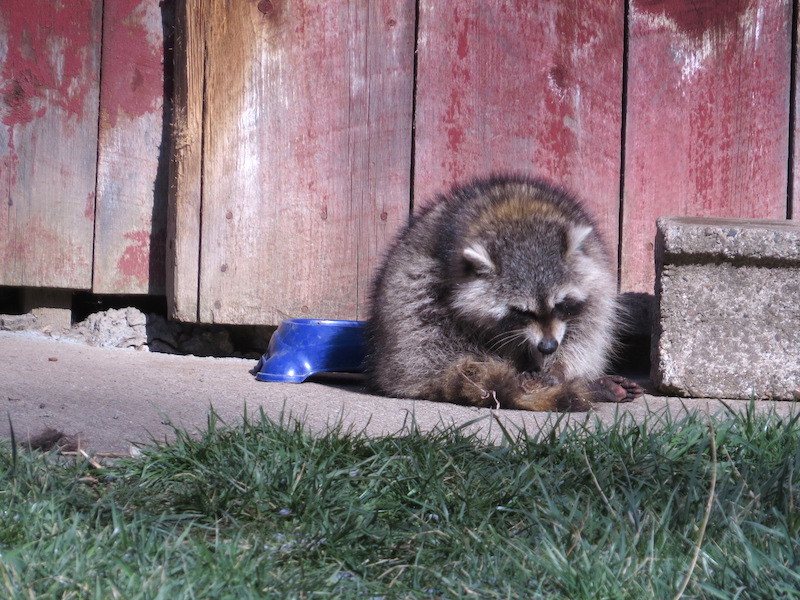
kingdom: Animalia
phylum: Chordata
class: Mammalia
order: Carnivora
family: Procyonidae
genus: Procyon
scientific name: Procyon lotor
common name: Raccoon
